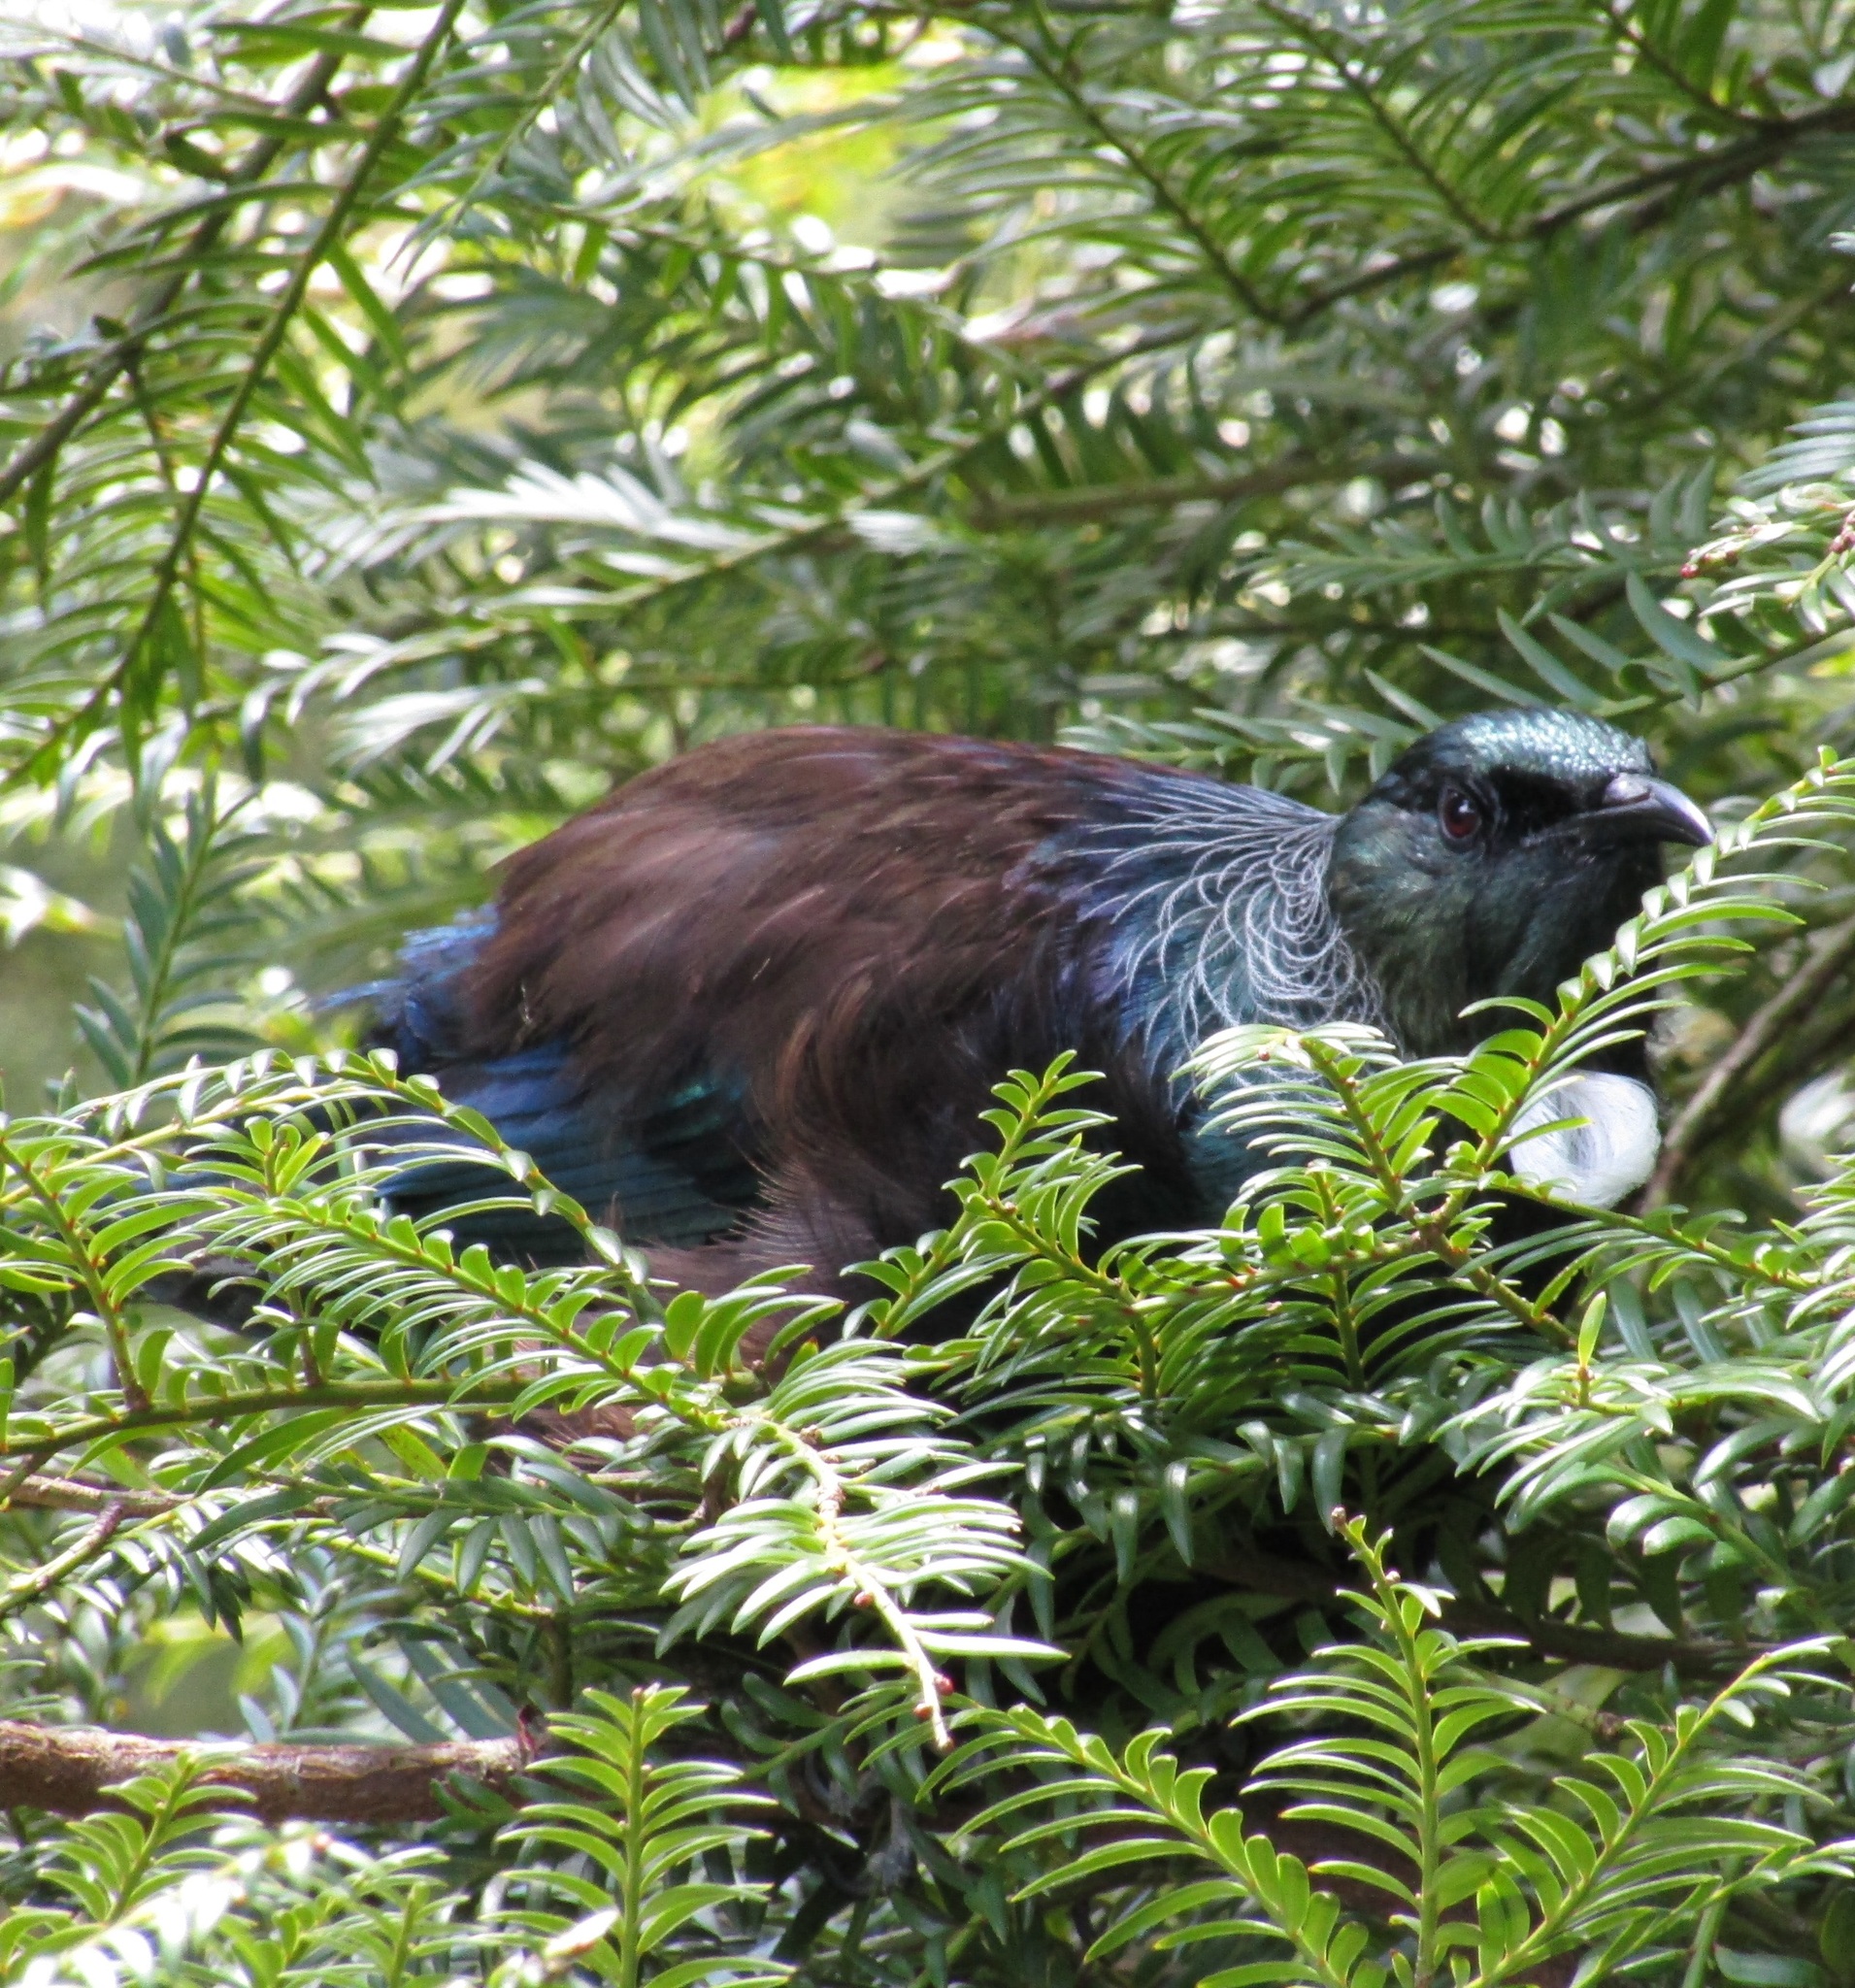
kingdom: Animalia
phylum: Chordata
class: Aves
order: Passeriformes
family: Meliphagidae
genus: Prosthemadera
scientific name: Prosthemadera novaeseelandiae
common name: Tui
